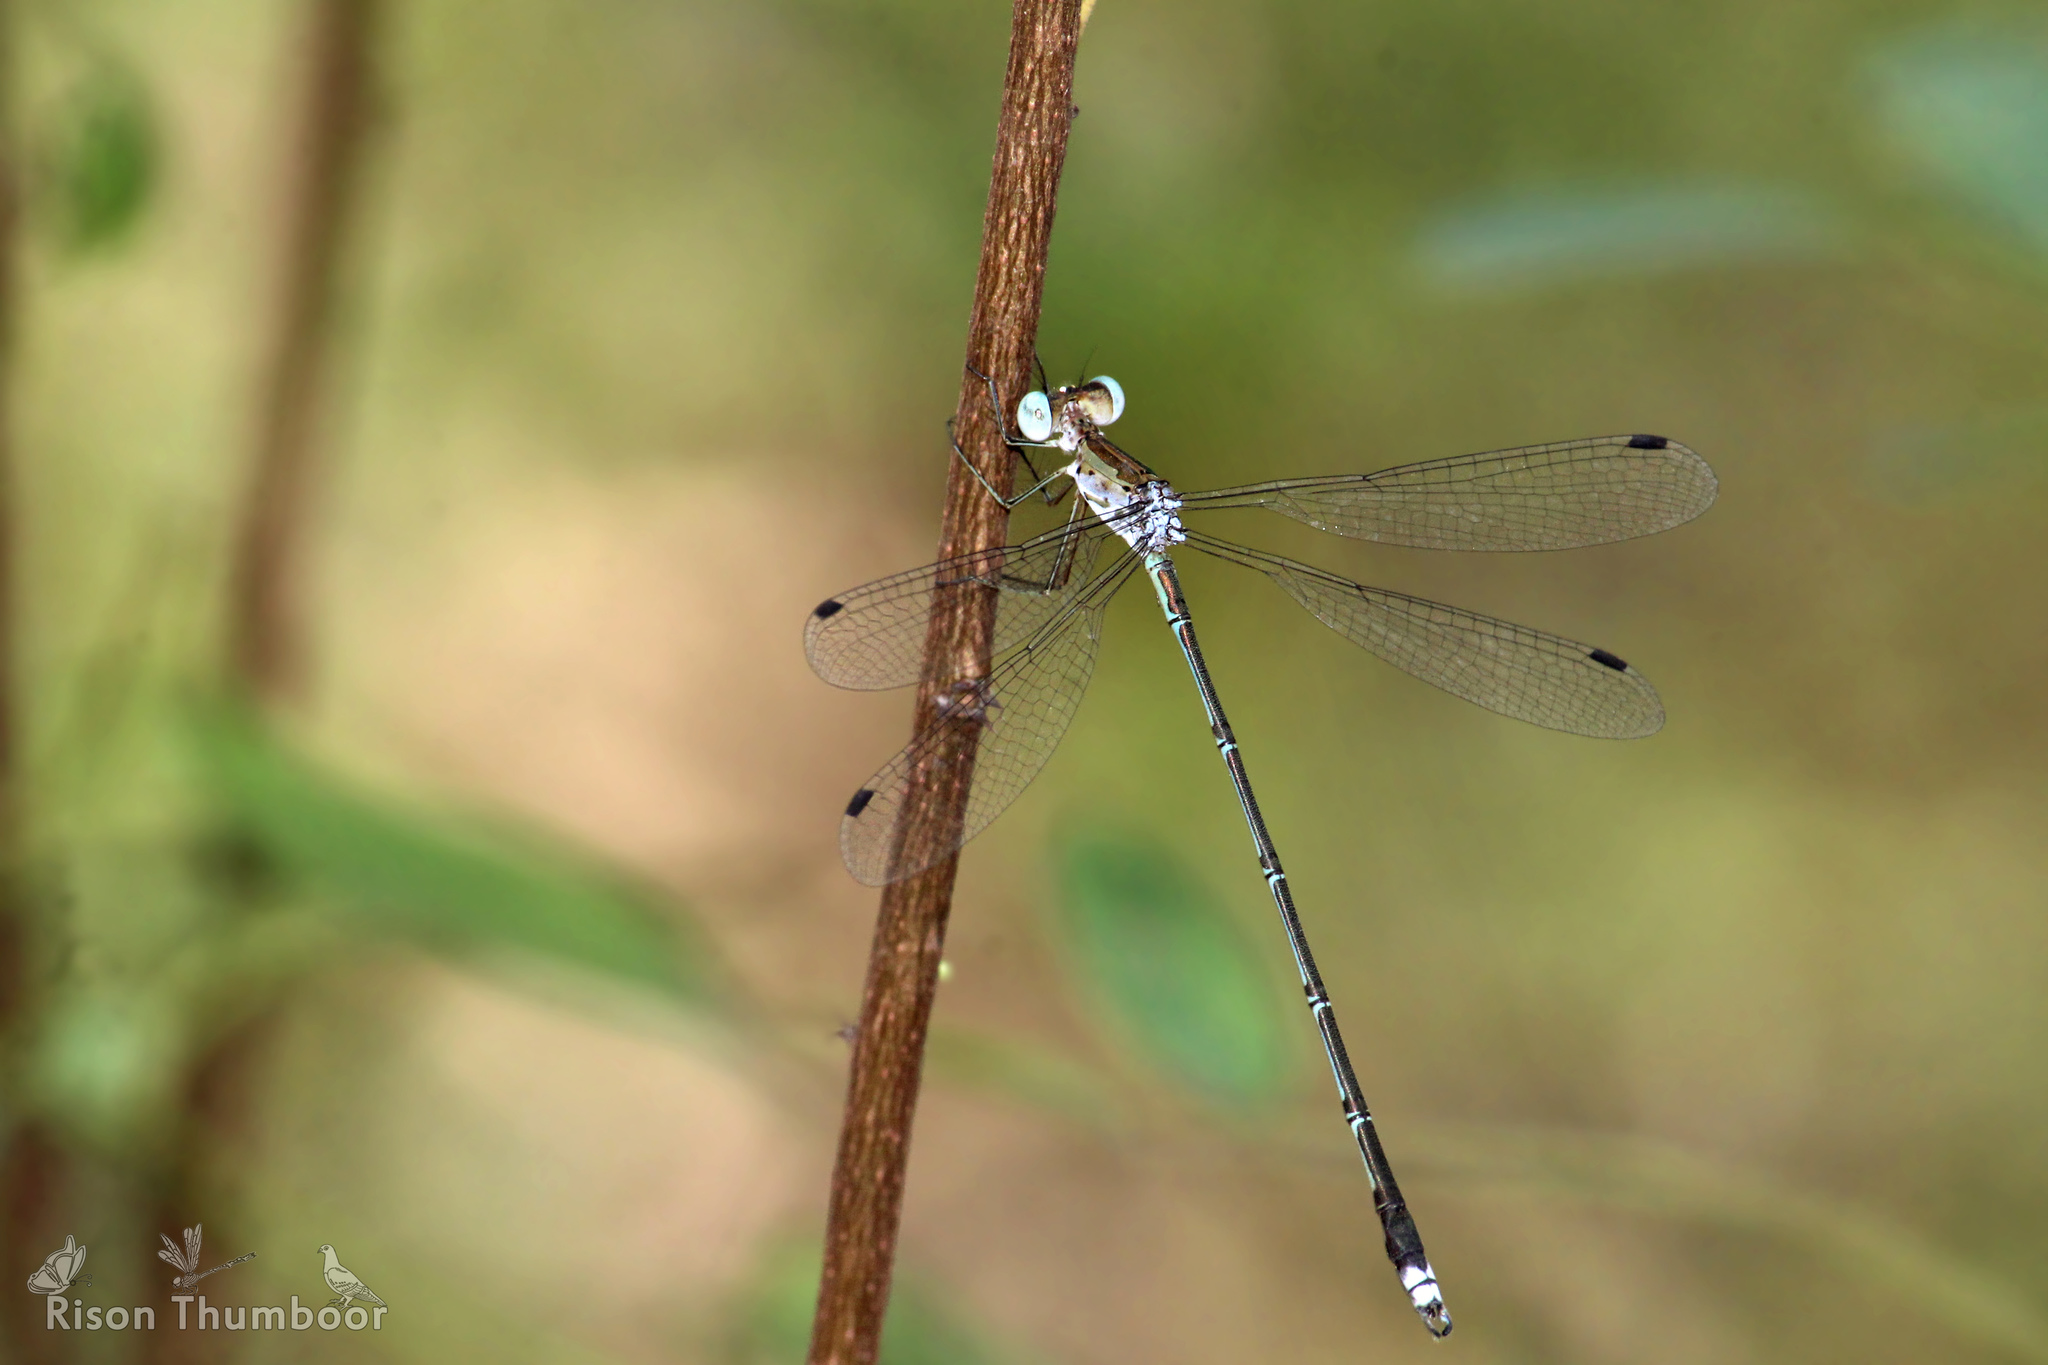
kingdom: Animalia
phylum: Arthropoda
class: Insecta
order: Odonata
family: Lestidae
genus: Lestes
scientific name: Lestes elatus
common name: Emerald spreadwing
